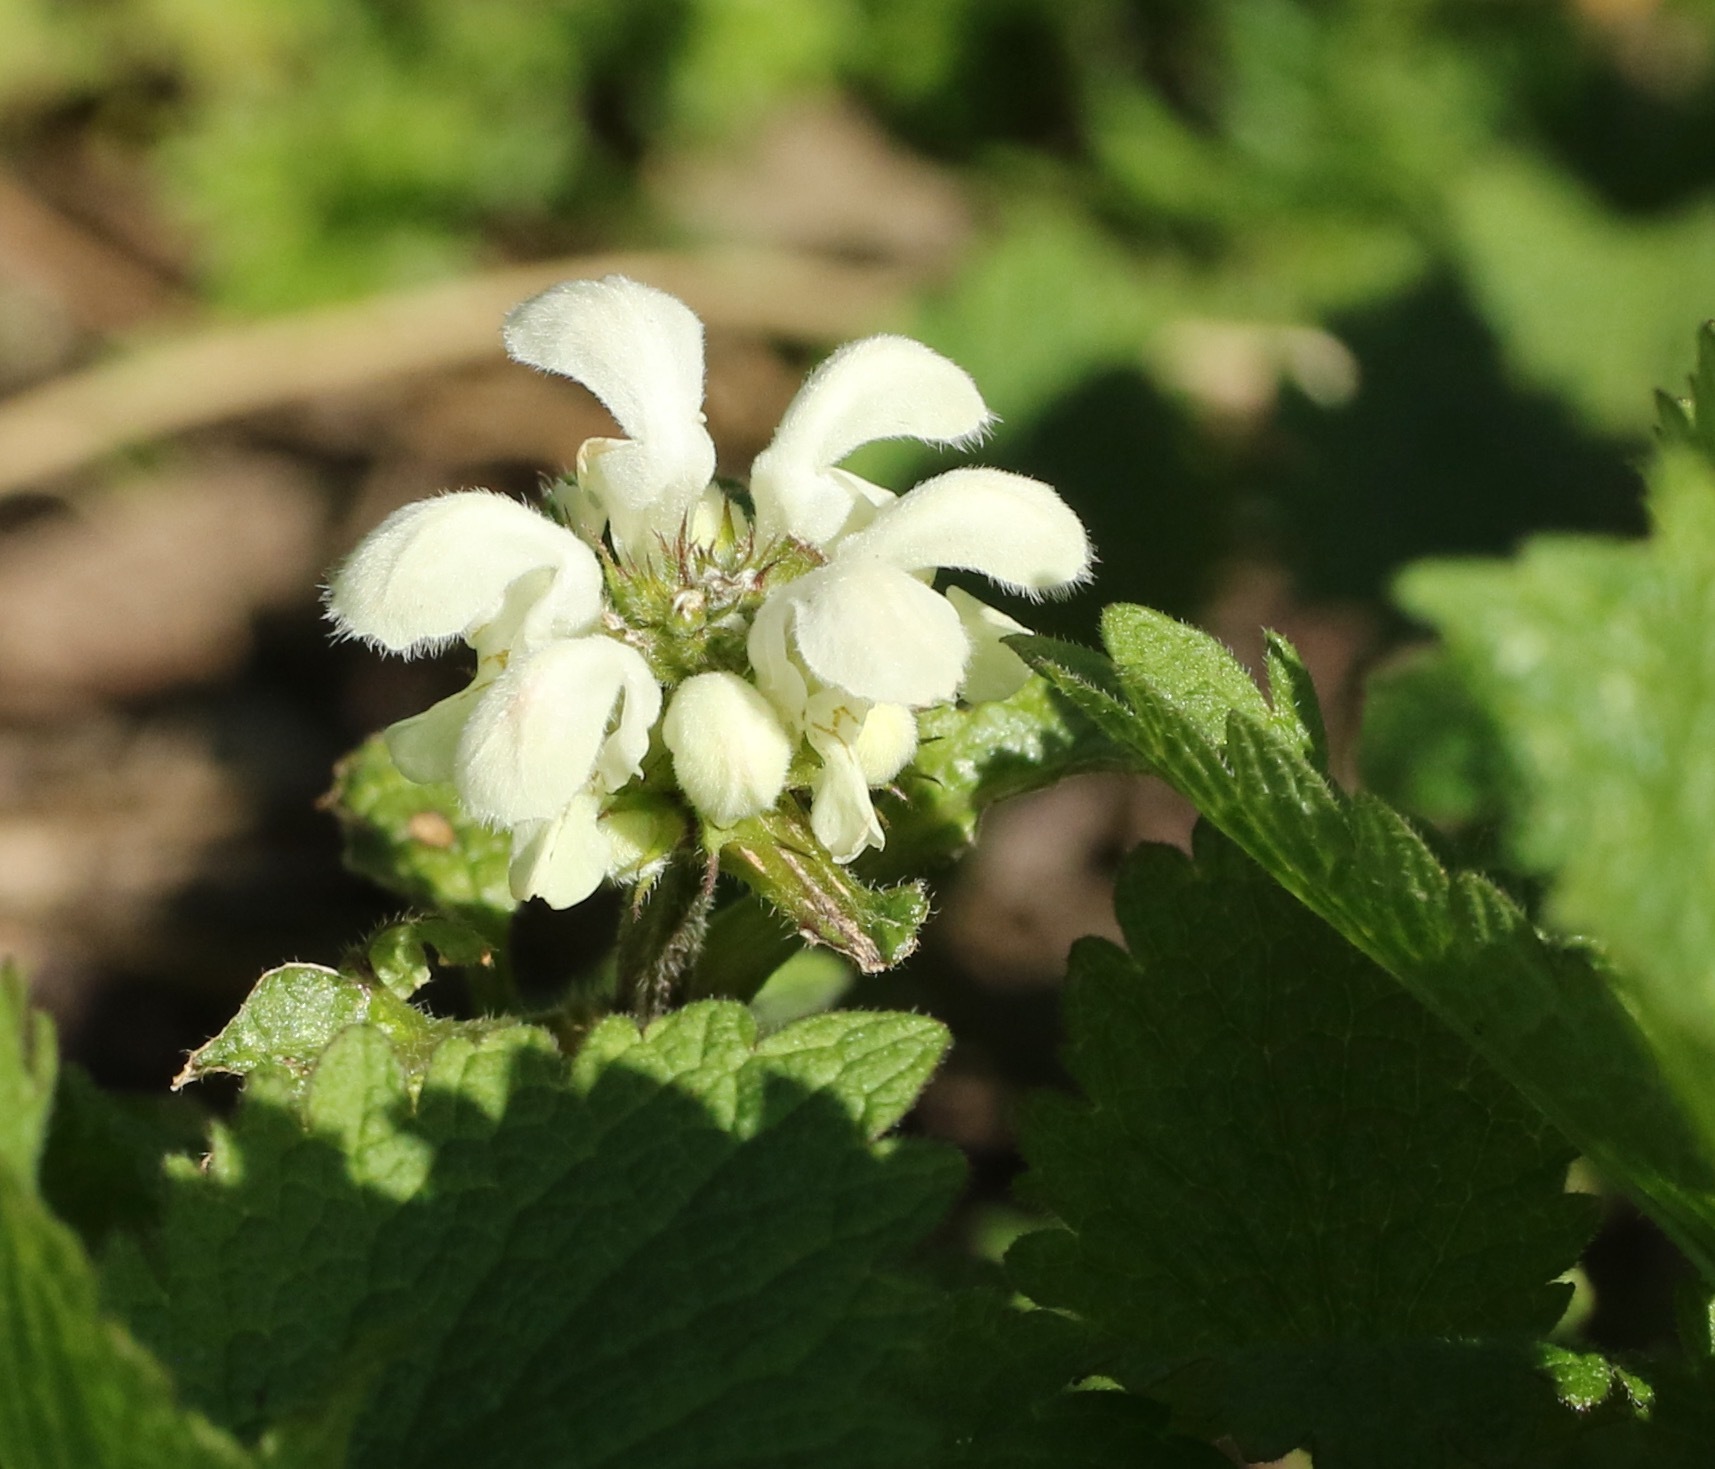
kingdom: Plantae
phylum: Tracheophyta
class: Magnoliopsida
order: Lamiales
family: Lamiaceae
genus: Lamium
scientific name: Lamium album
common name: White dead-nettle
